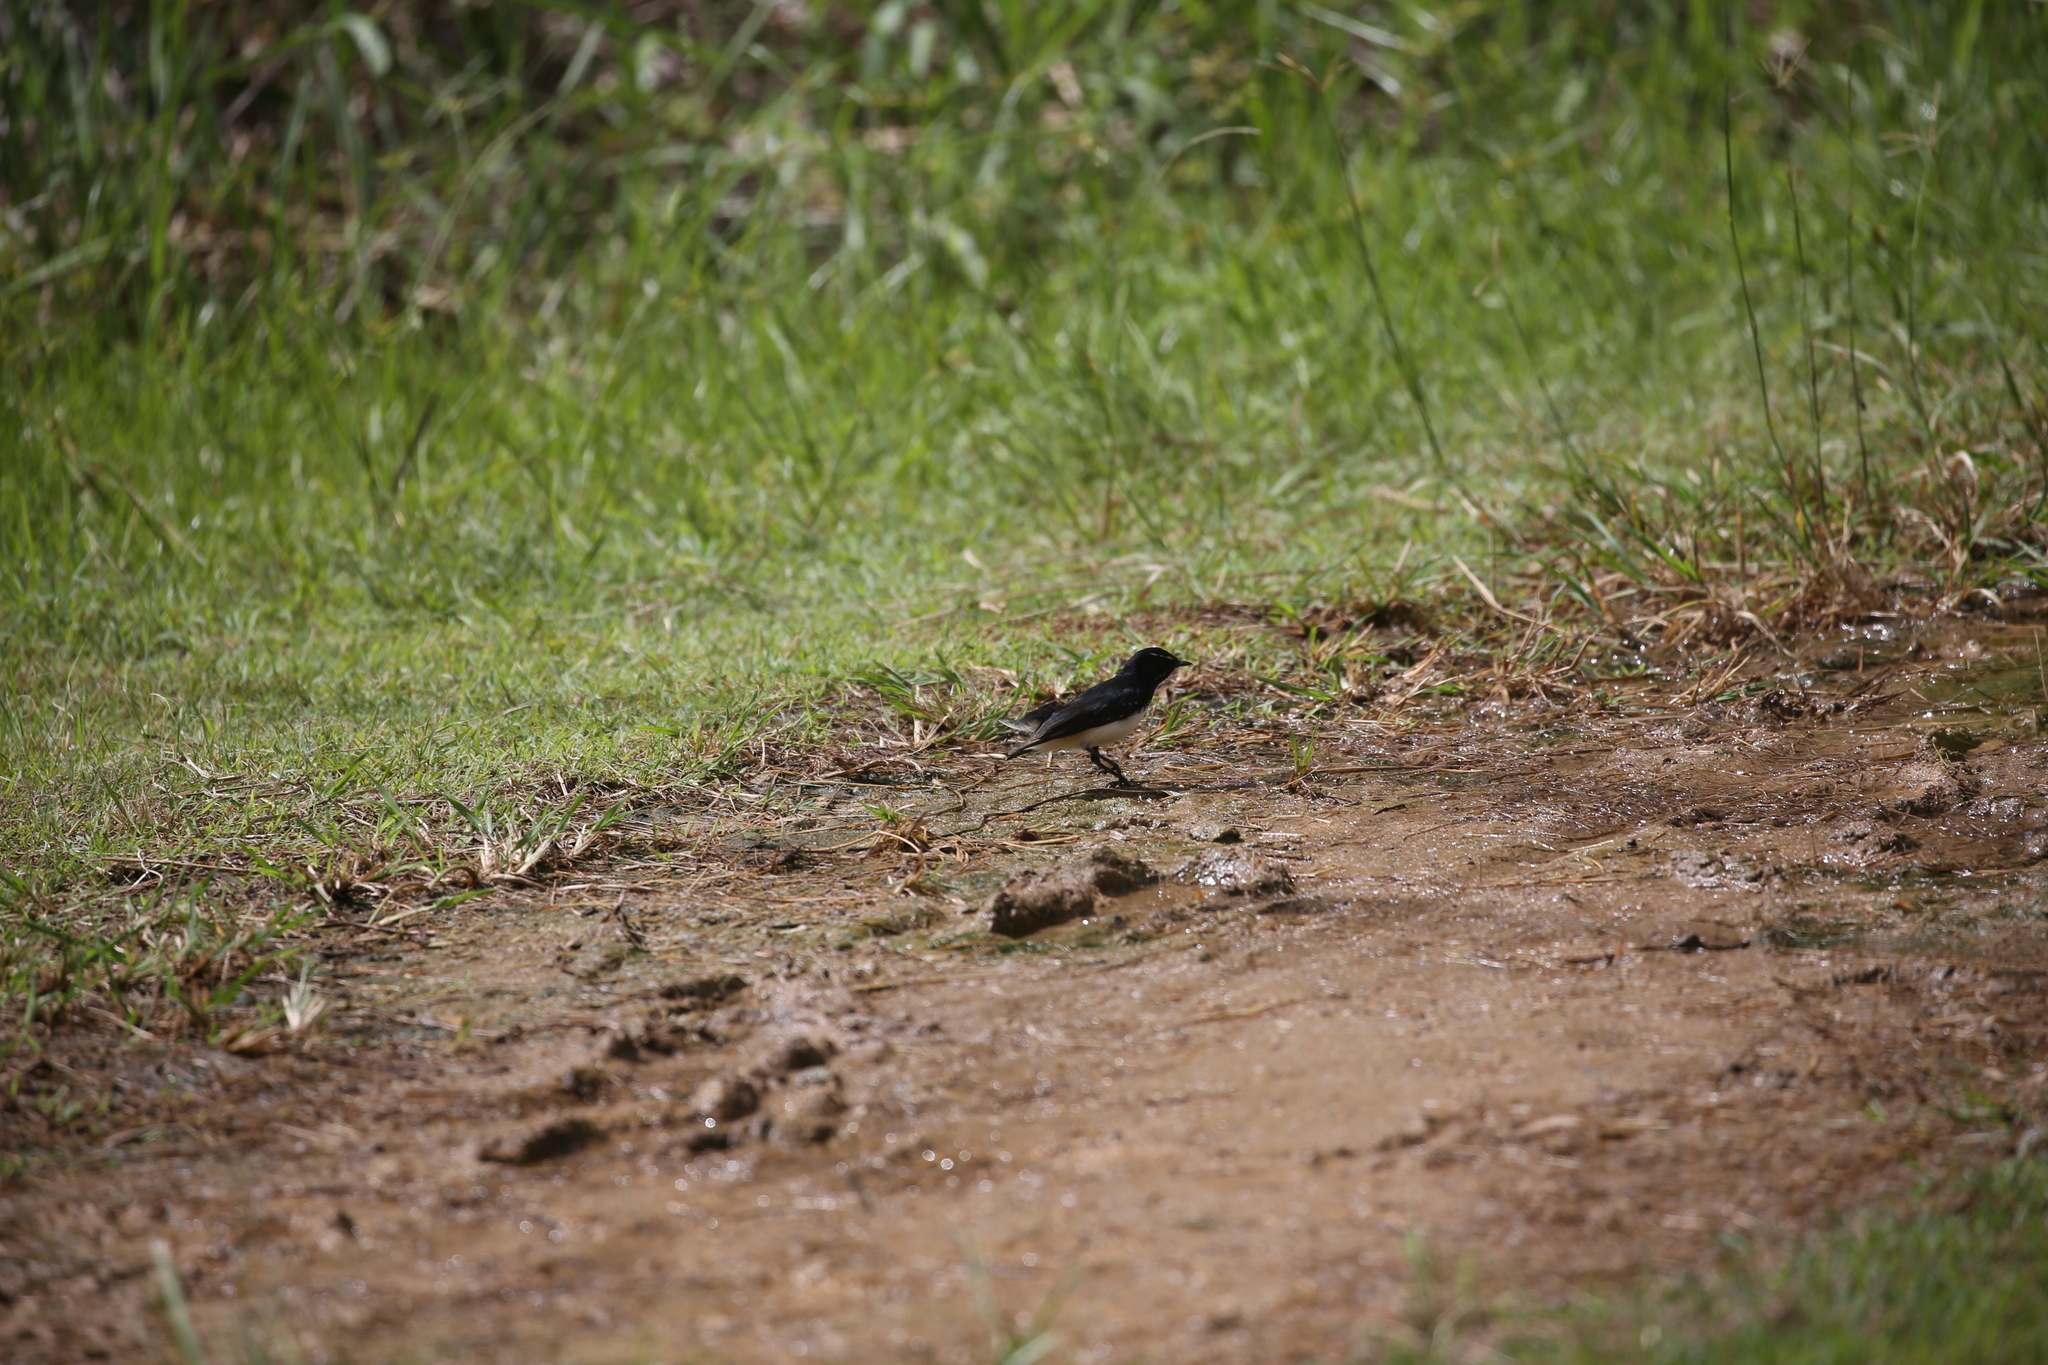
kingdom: Animalia
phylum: Chordata
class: Aves
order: Passeriformes
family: Rhipiduridae
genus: Rhipidura
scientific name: Rhipidura leucophrys
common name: Willie wagtail
